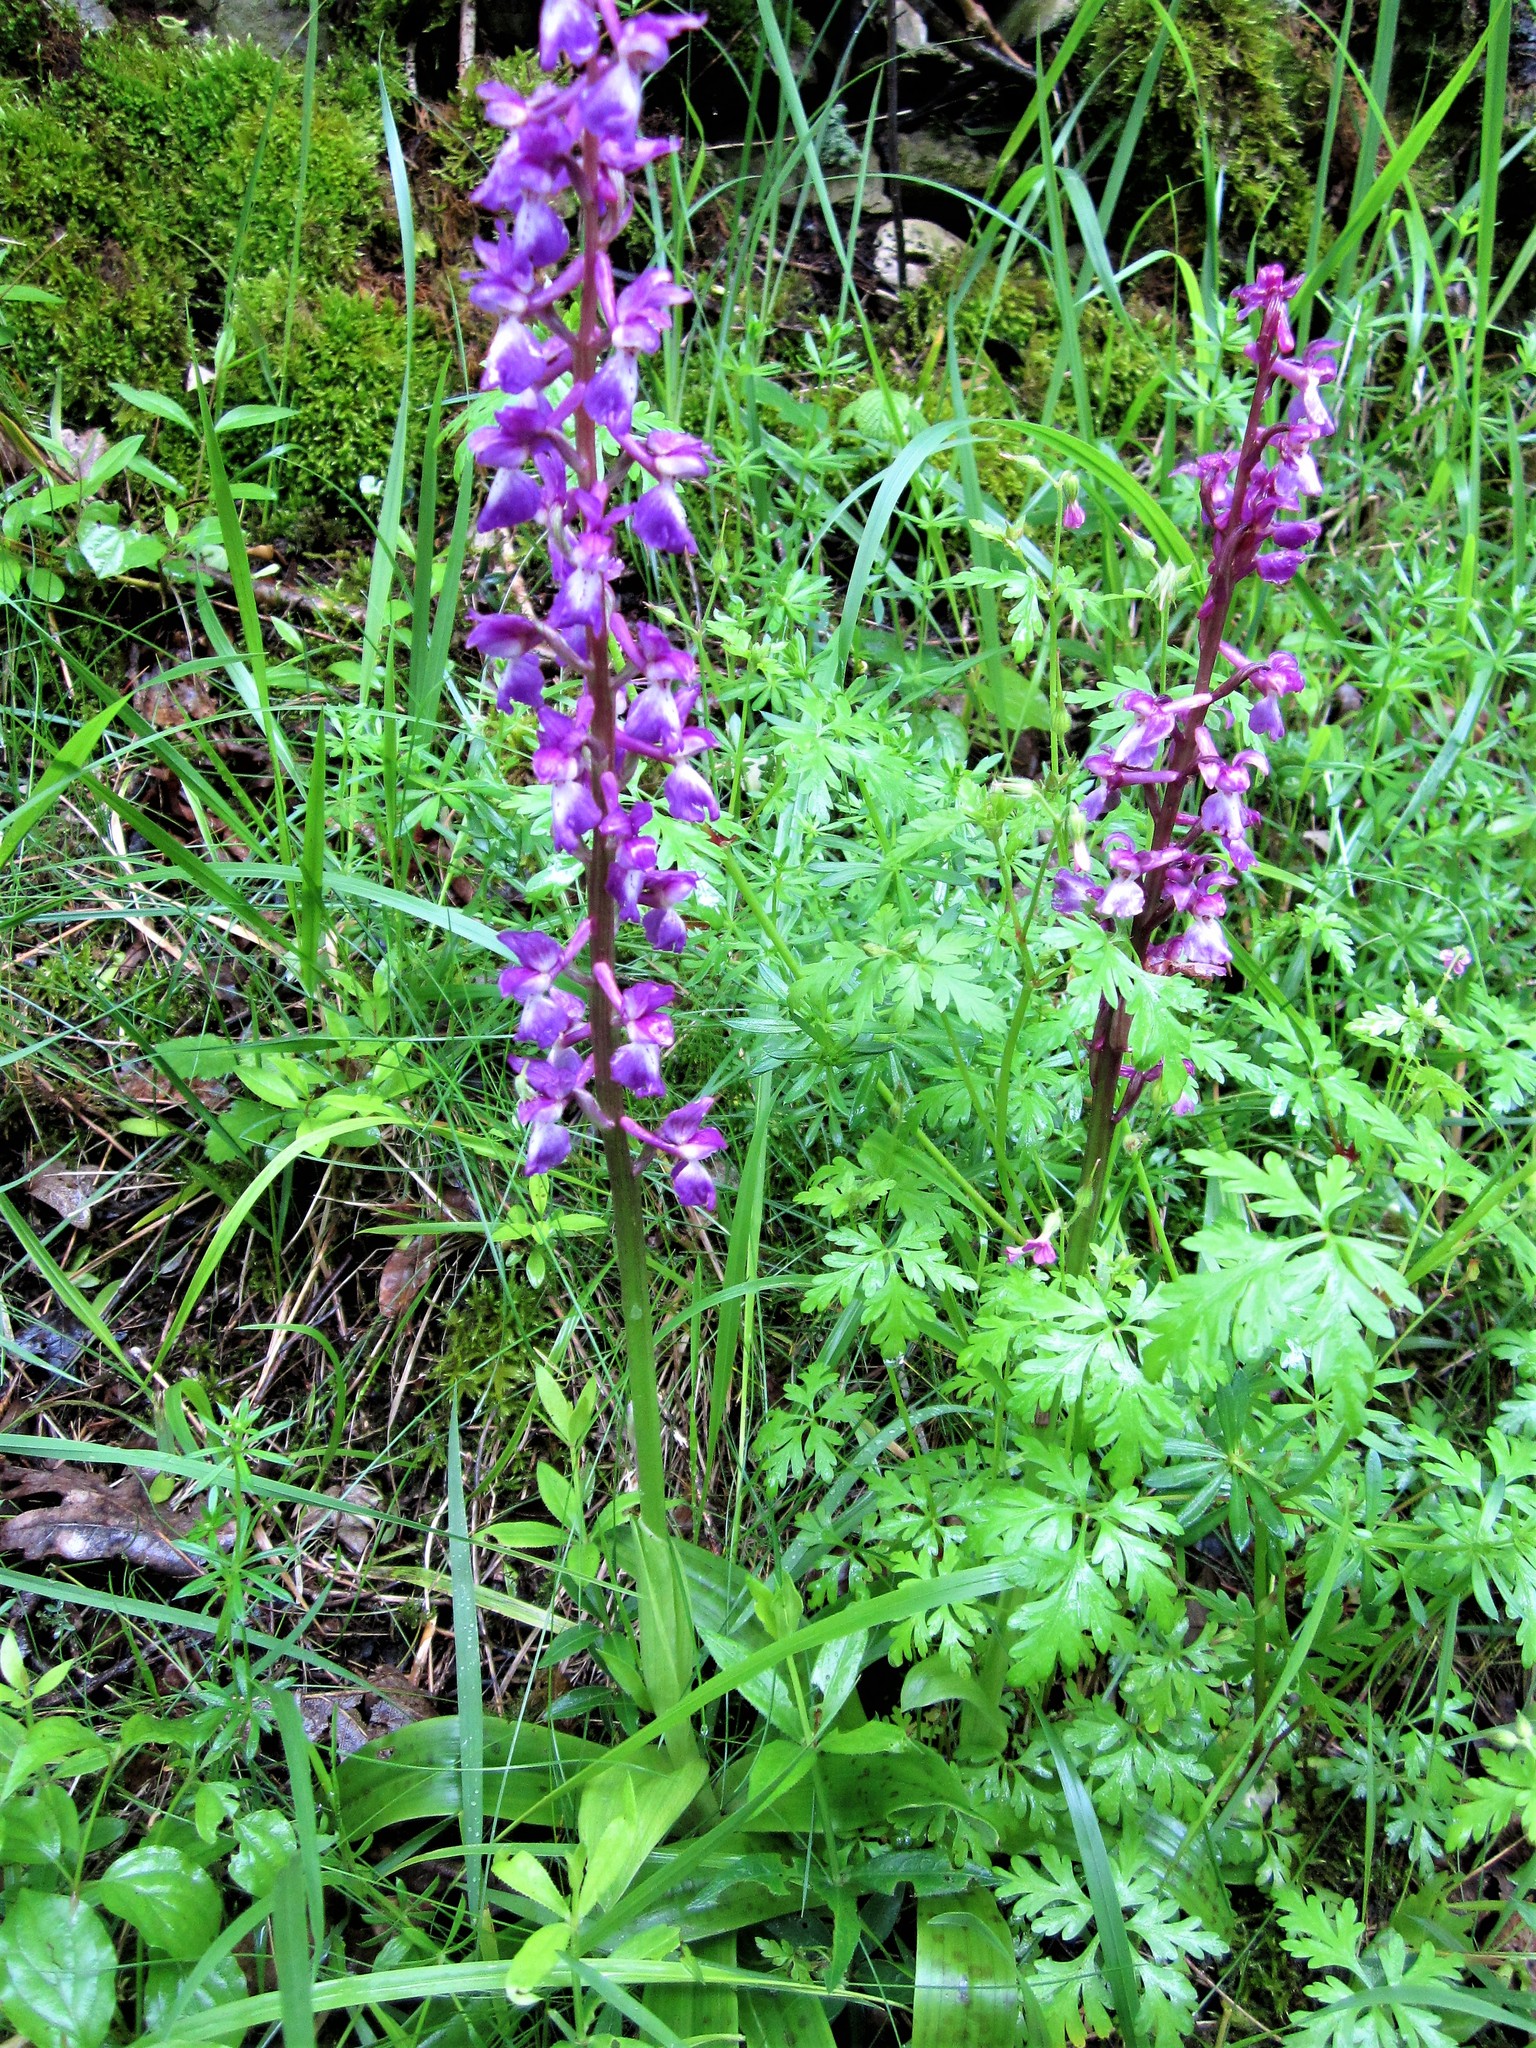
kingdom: Plantae
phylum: Tracheophyta
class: Liliopsida
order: Asparagales
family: Orchidaceae
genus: Orchis
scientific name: Orchis mascula
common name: Early-purple orchid
